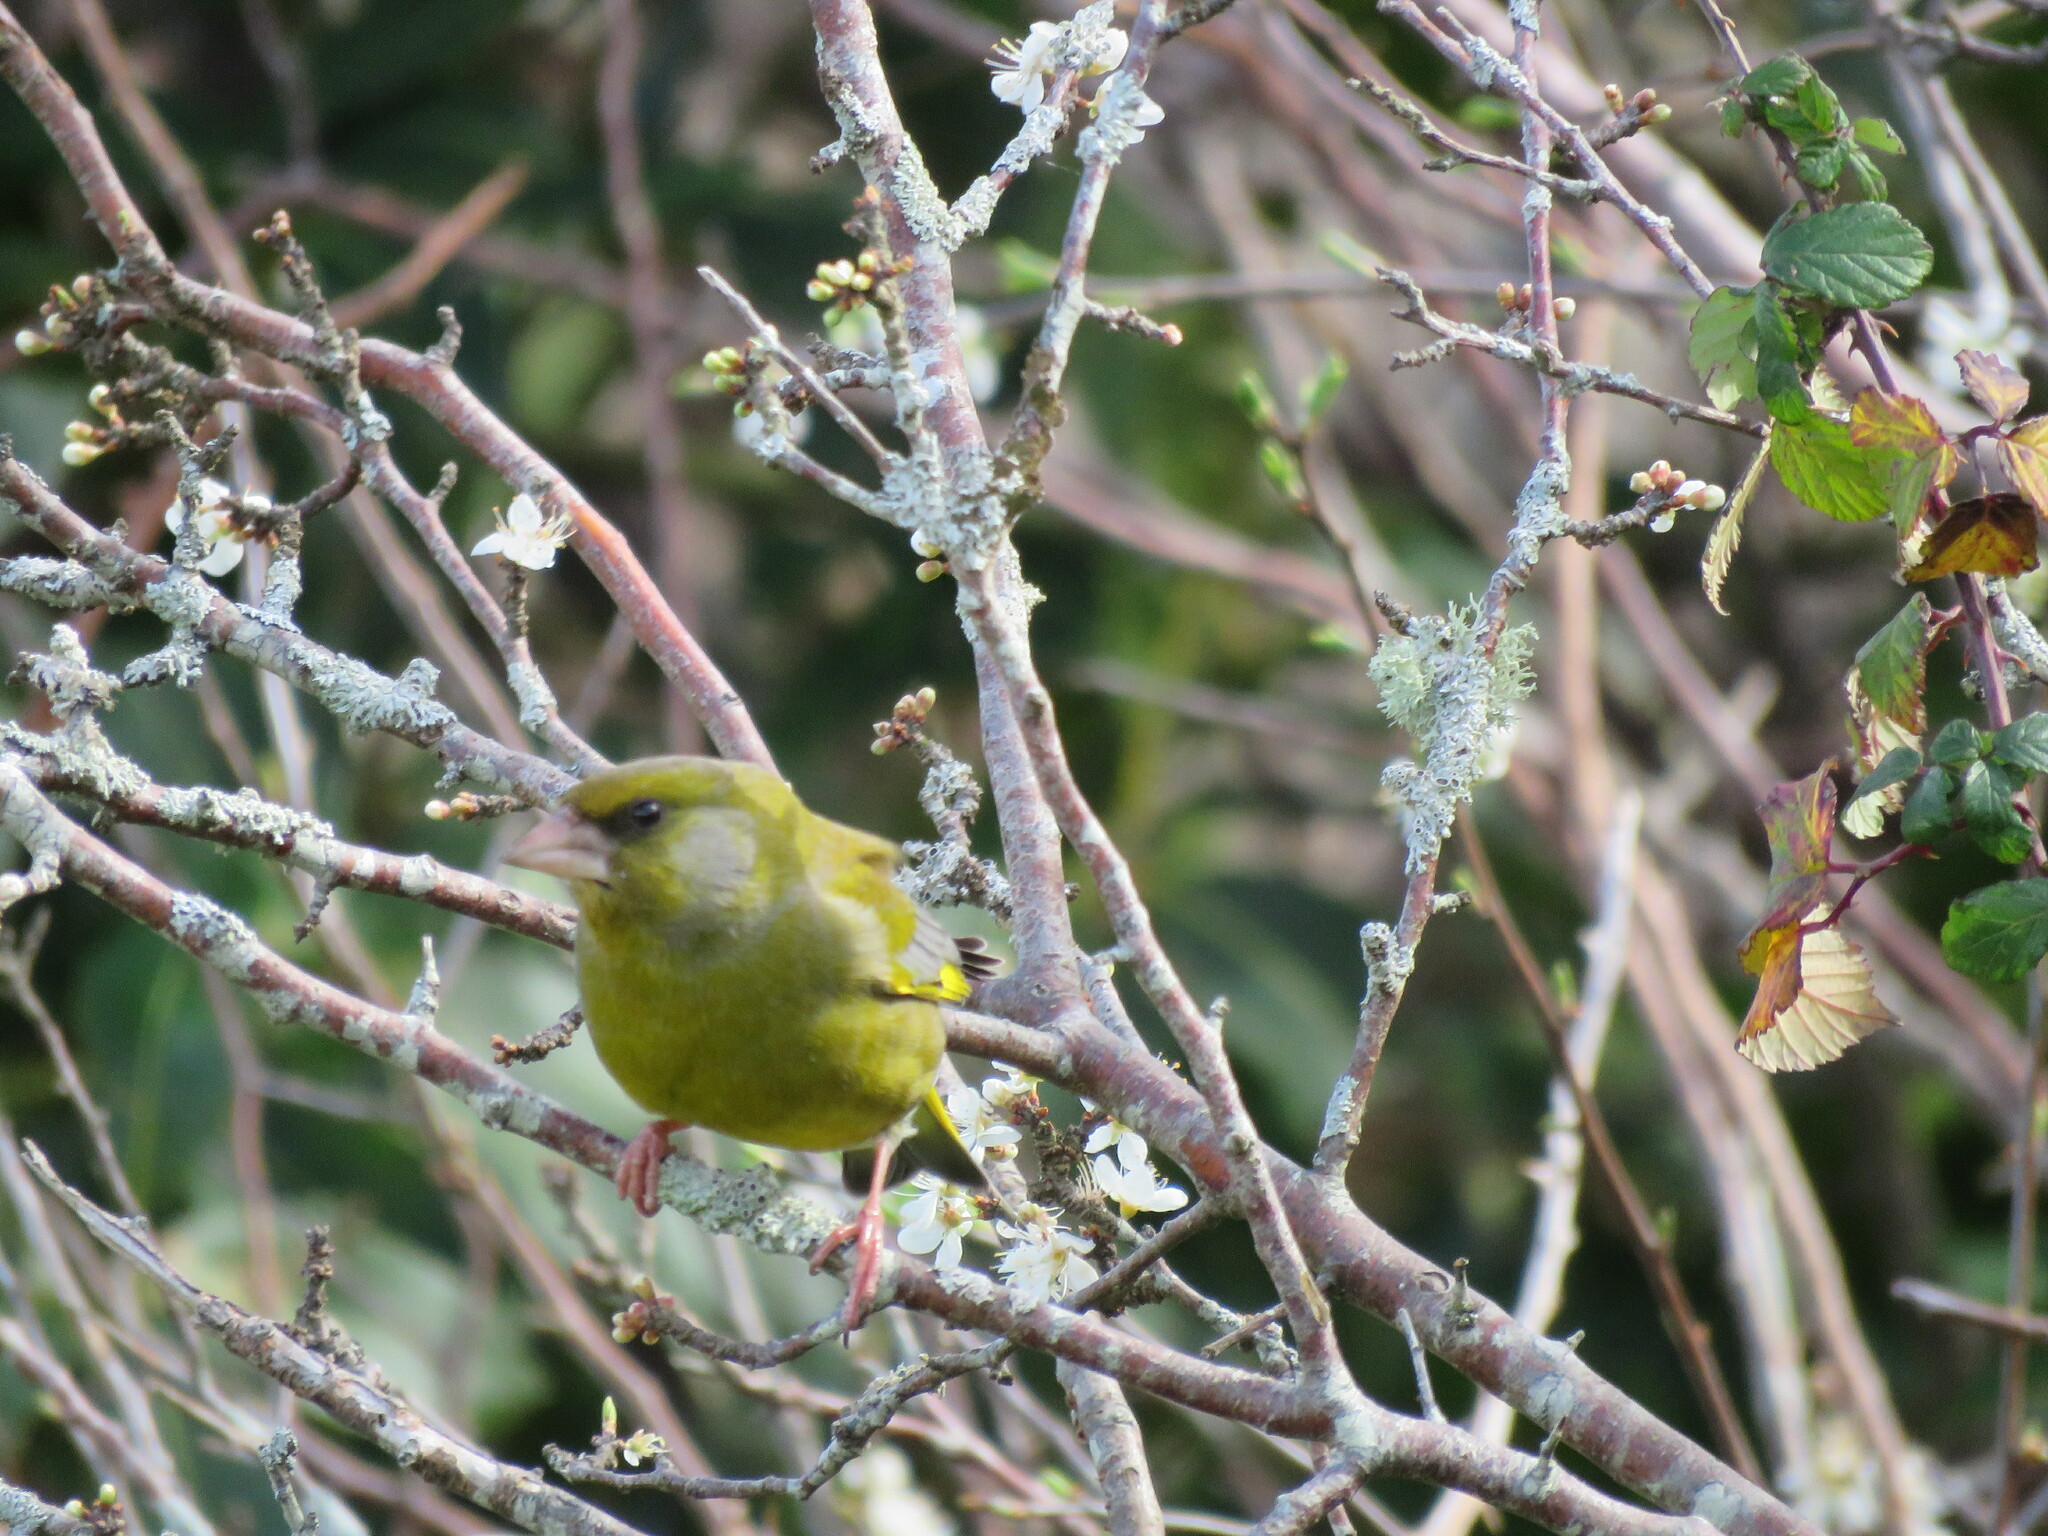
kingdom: Plantae
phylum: Tracheophyta
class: Liliopsida
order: Poales
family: Poaceae
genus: Chloris
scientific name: Chloris chloris
